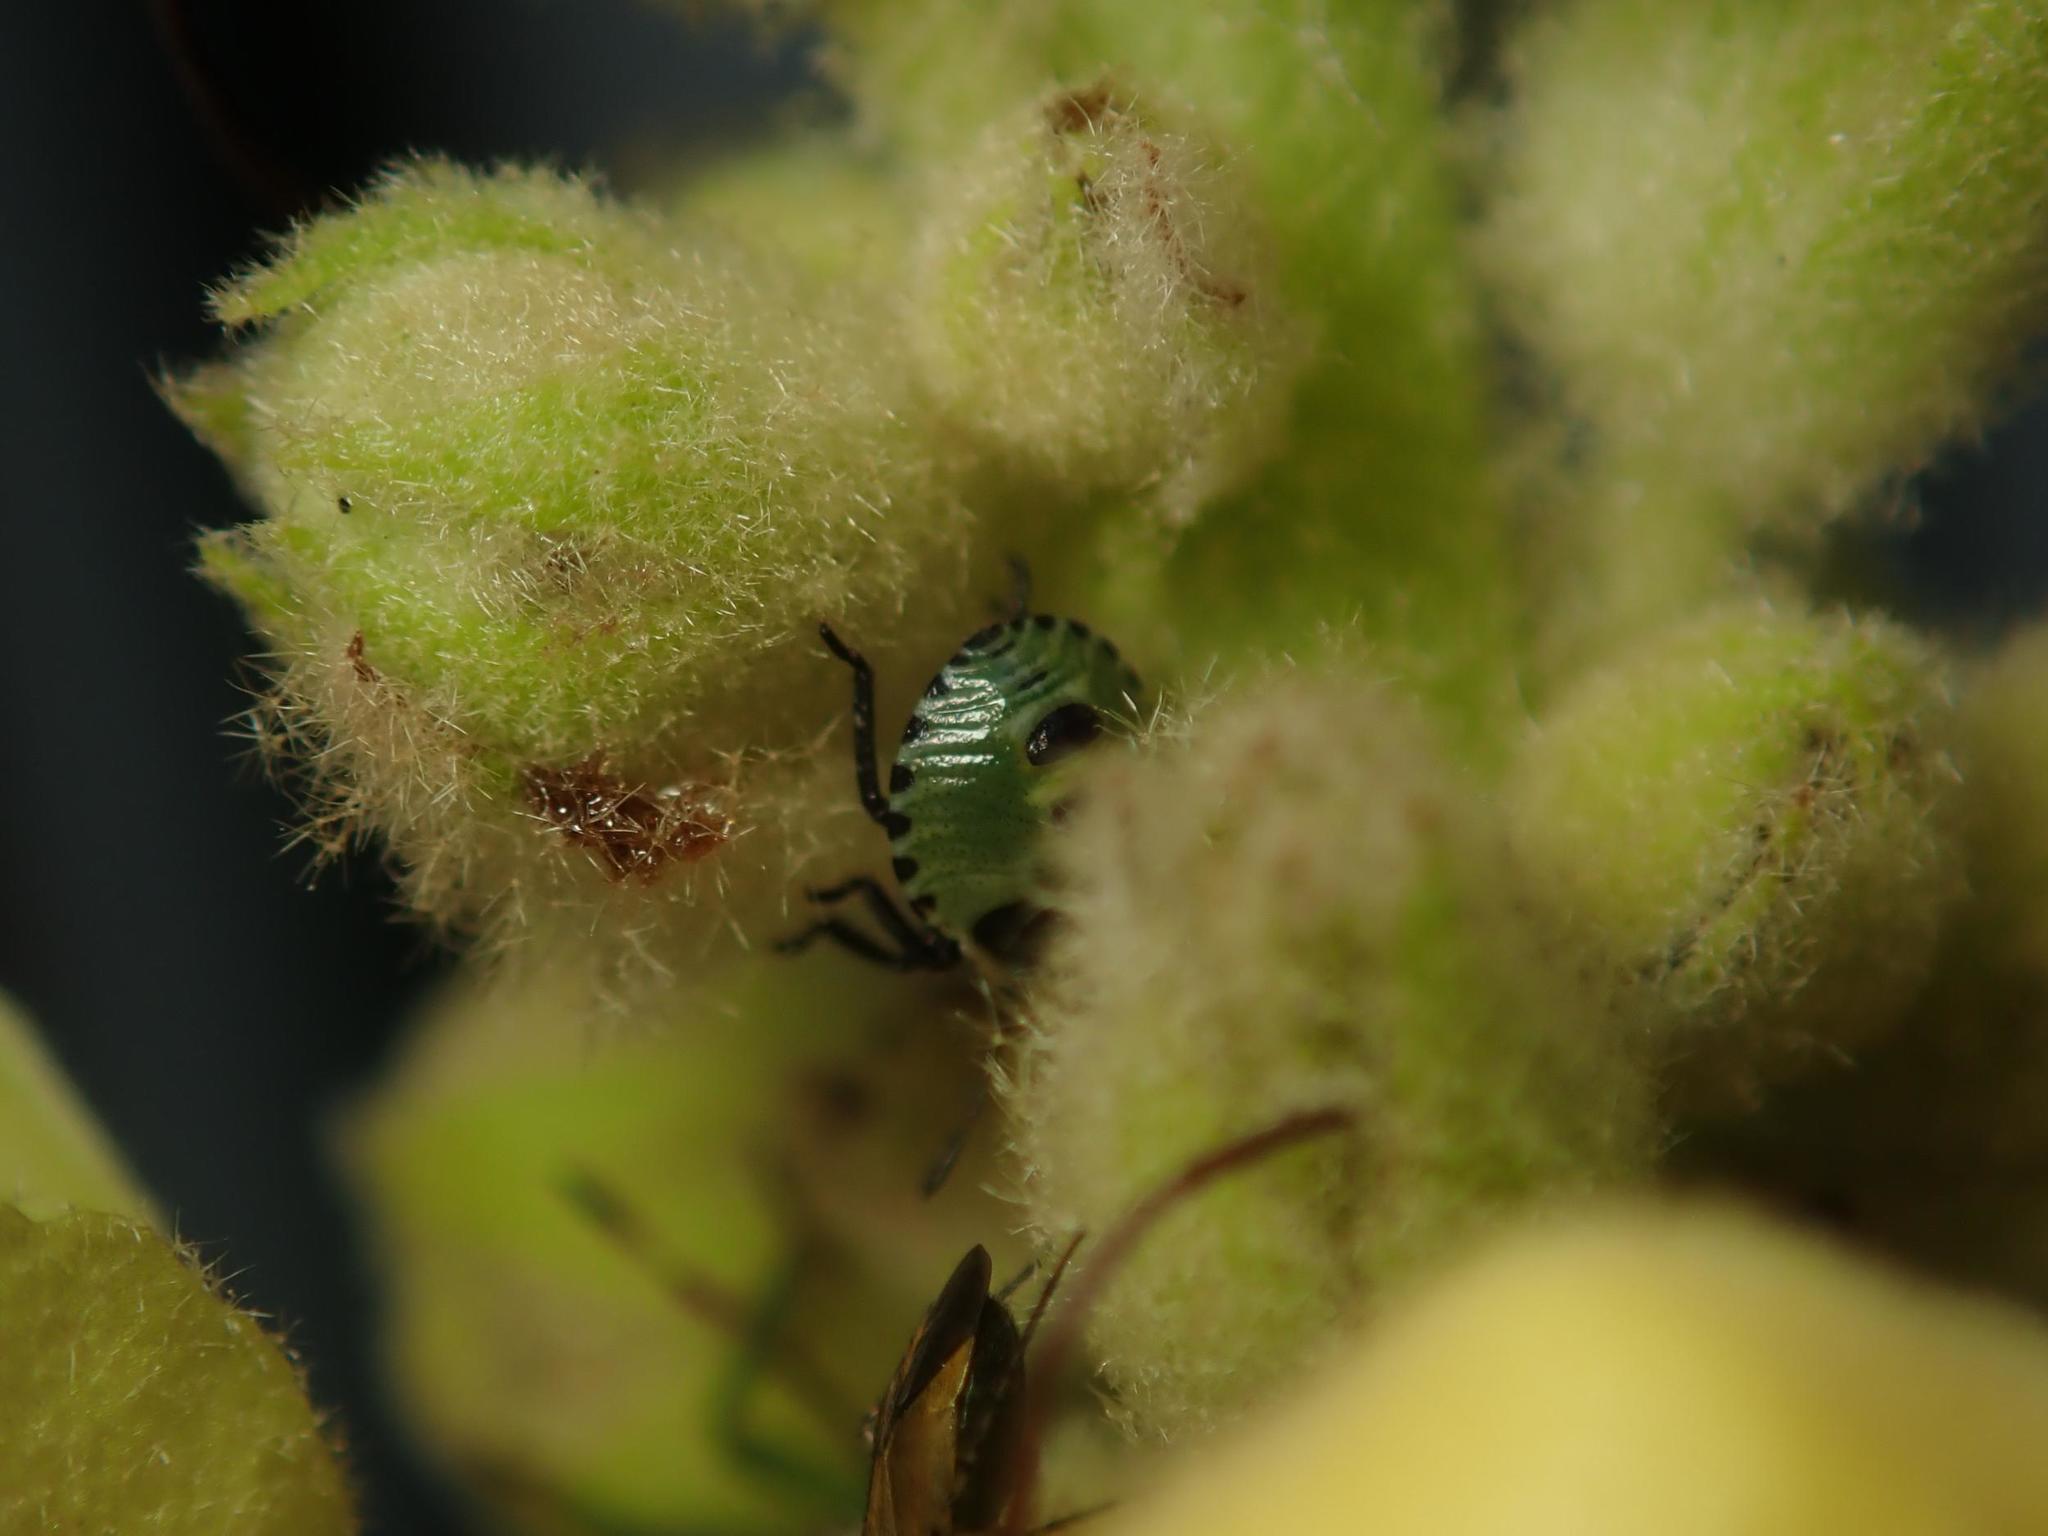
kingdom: Animalia
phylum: Arthropoda
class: Insecta
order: Hemiptera
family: Pentatomidae
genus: Palomena
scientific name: Palomena prasina
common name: Green shieldbug
